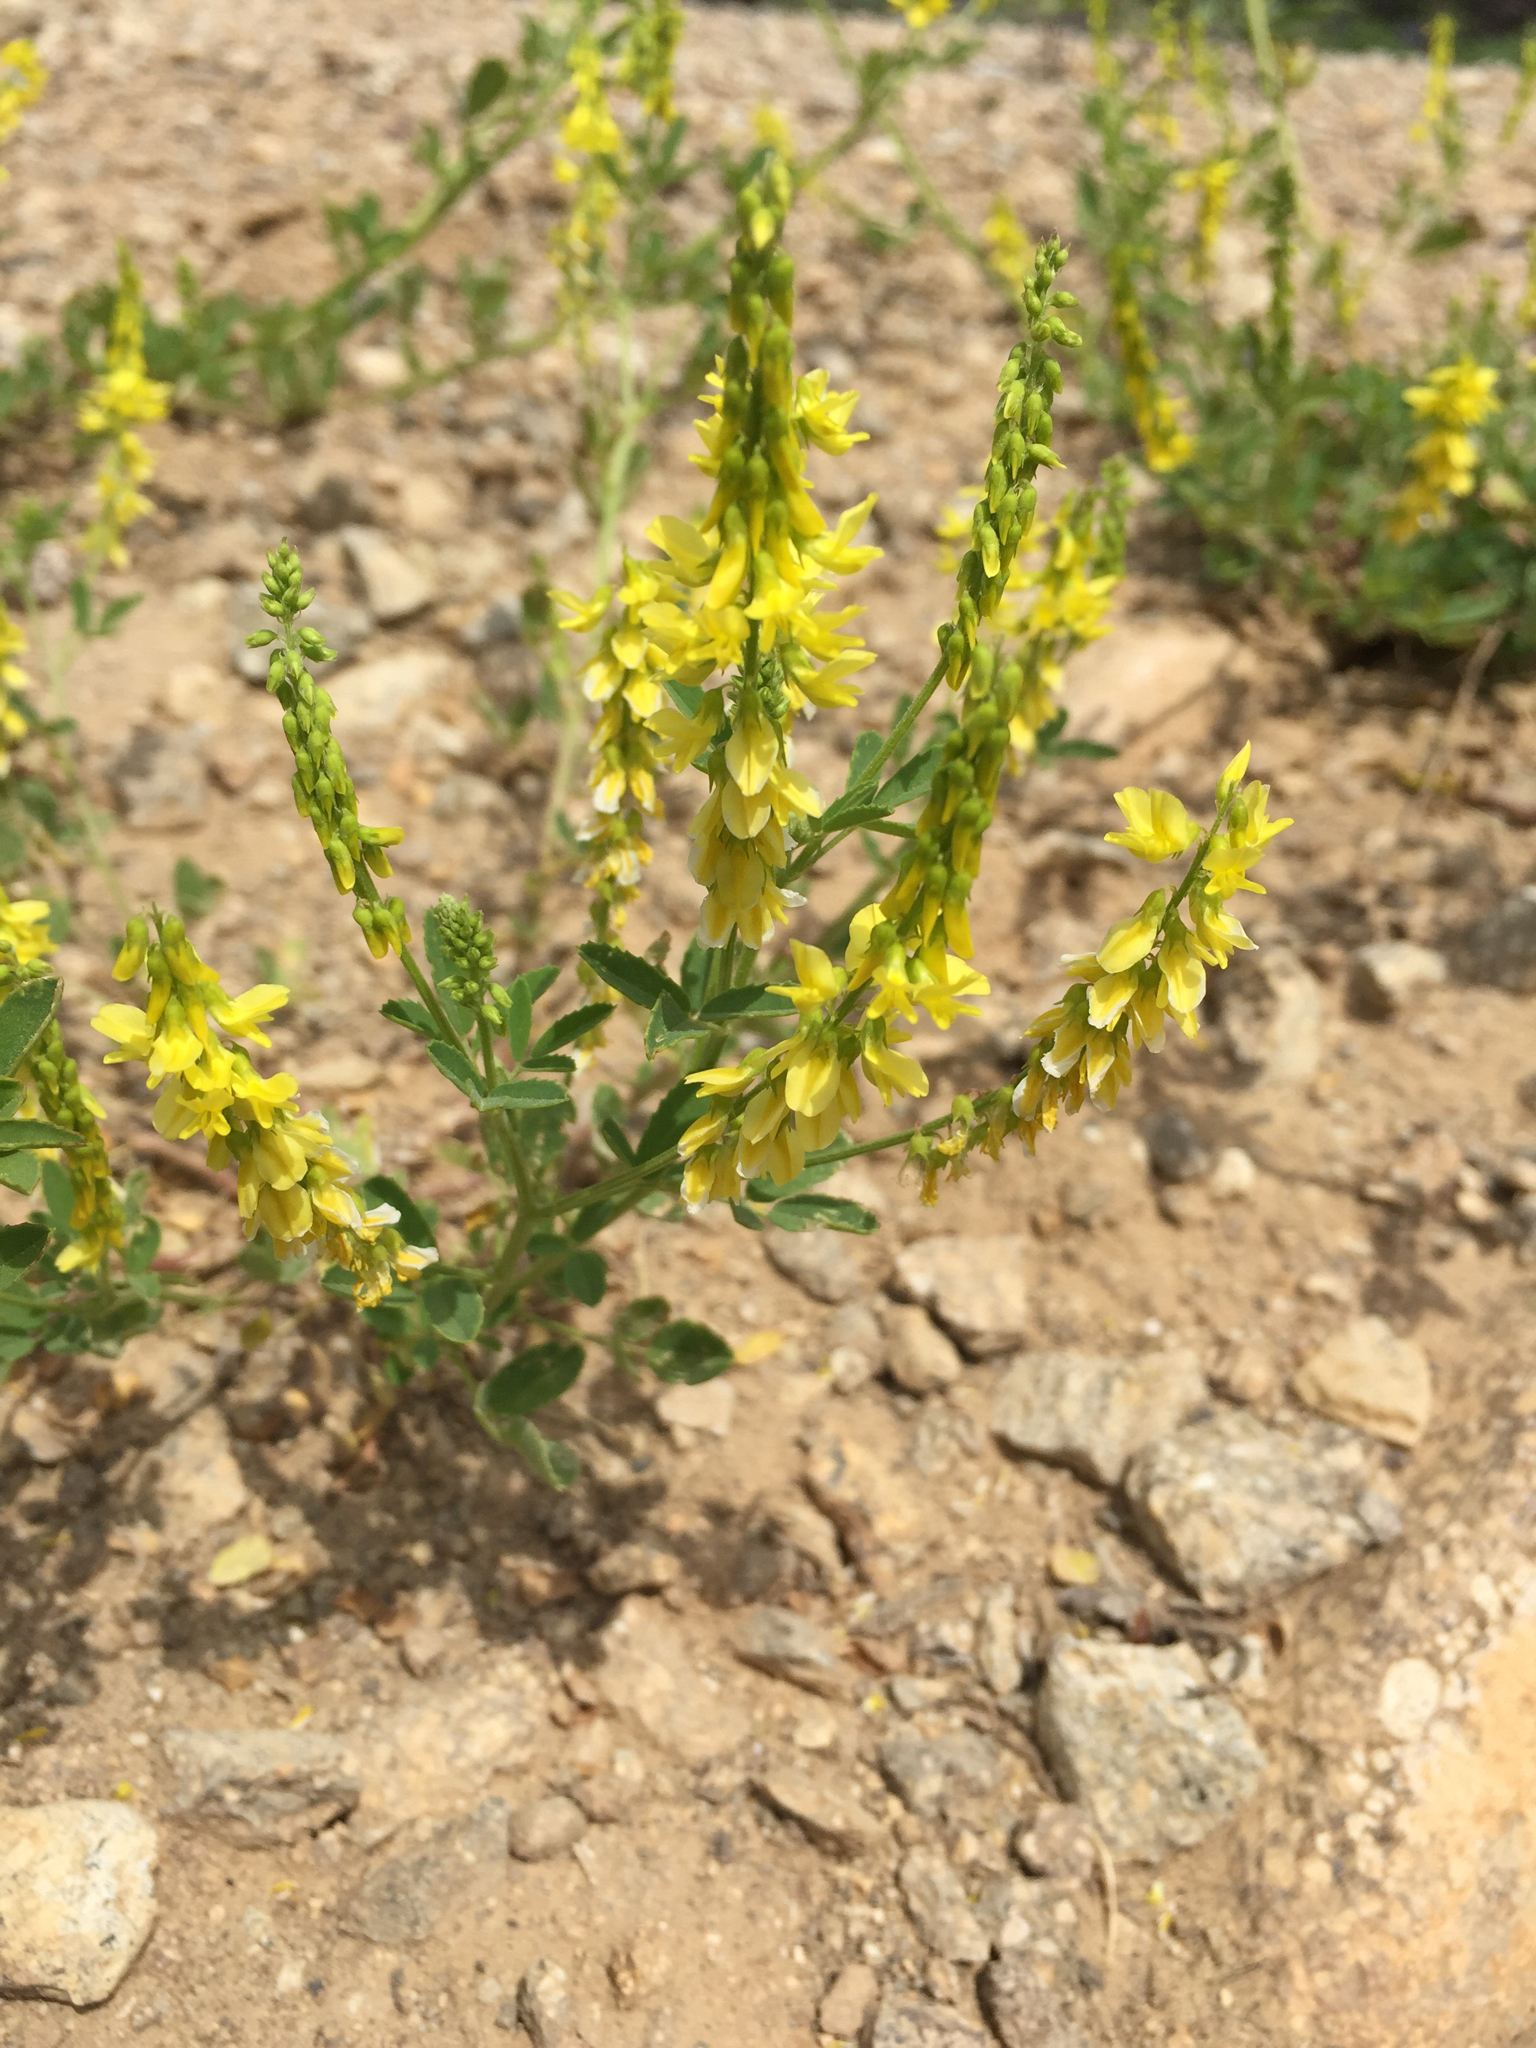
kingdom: Plantae
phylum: Tracheophyta
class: Magnoliopsida
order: Fabales
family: Fabaceae
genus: Melilotus
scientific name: Melilotus officinalis
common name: Sweetclover
